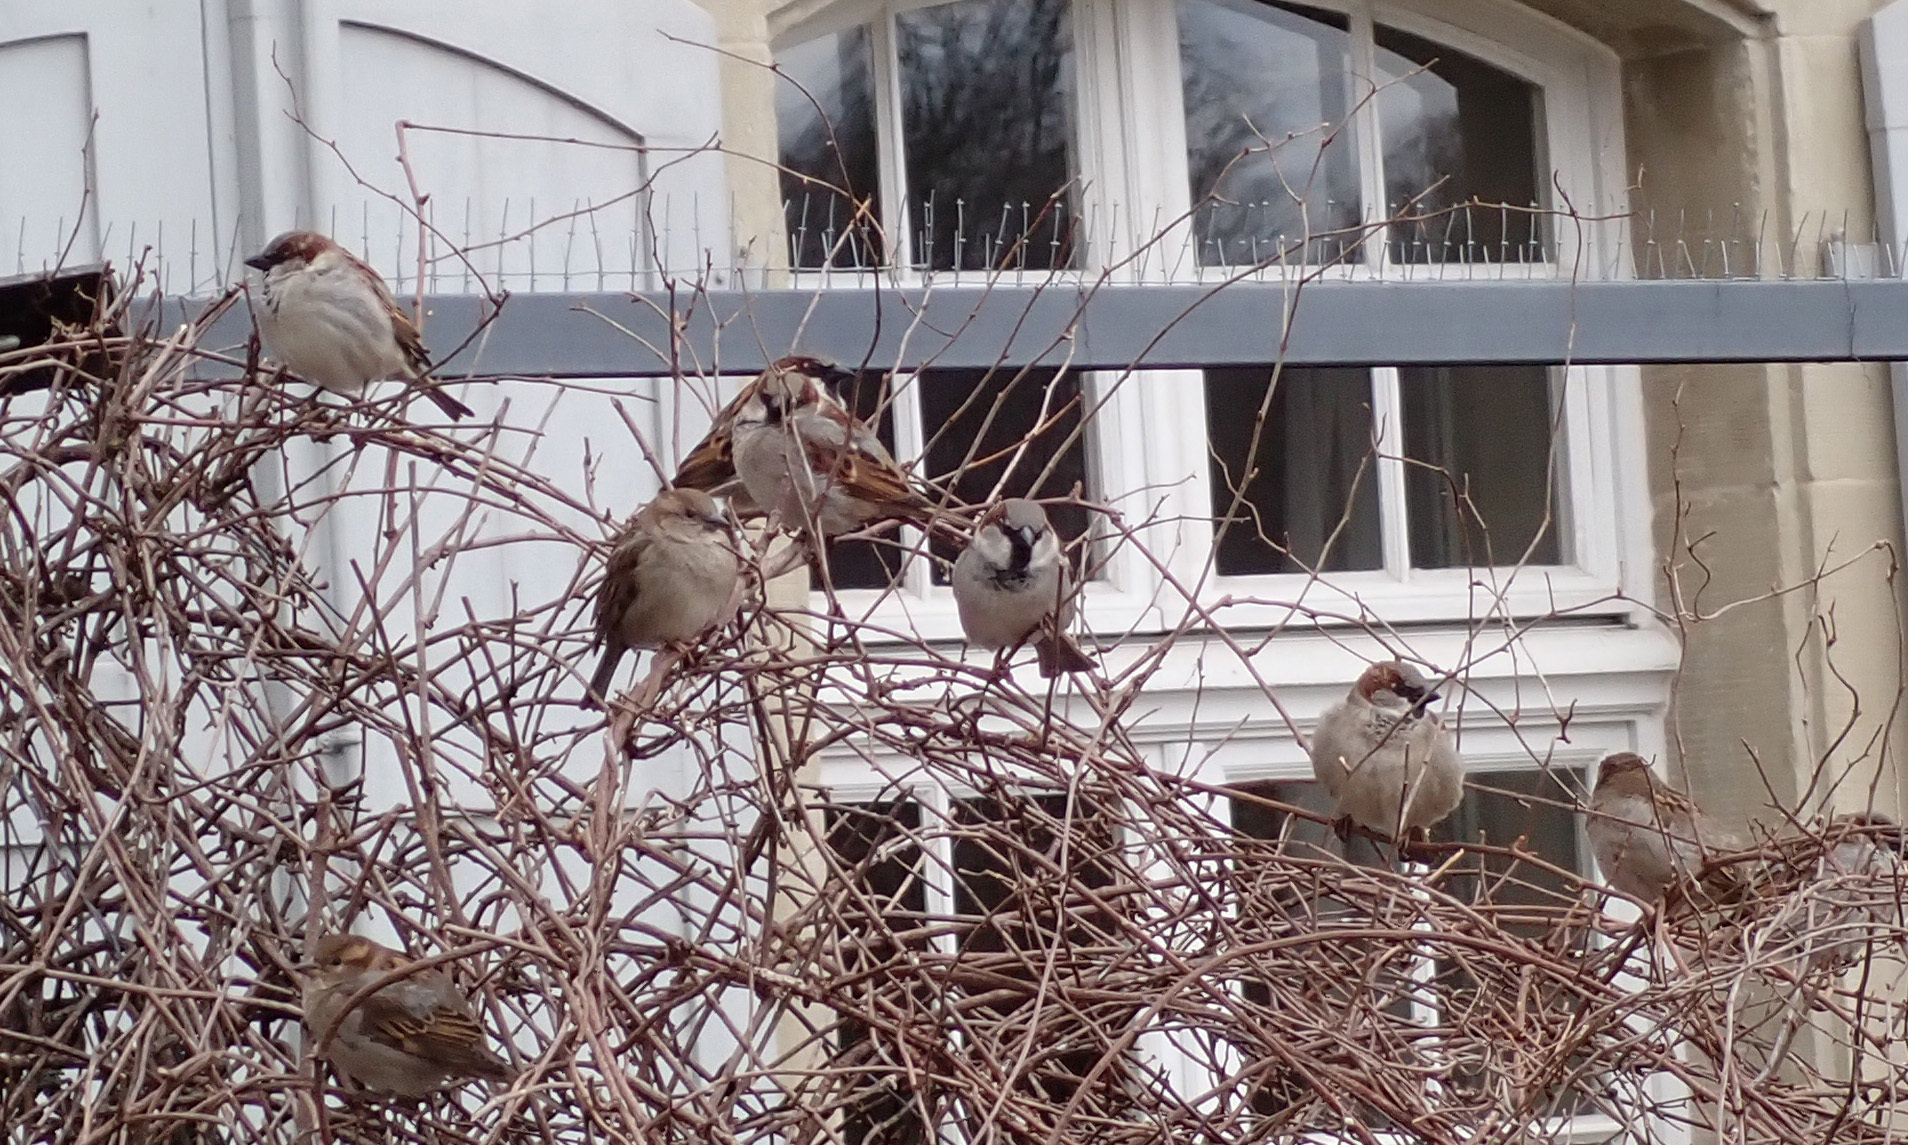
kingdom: Animalia
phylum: Chordata
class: Aves
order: Passeriformes
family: Passeridae
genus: Passer
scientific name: Passer domesticus
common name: House sparrow
